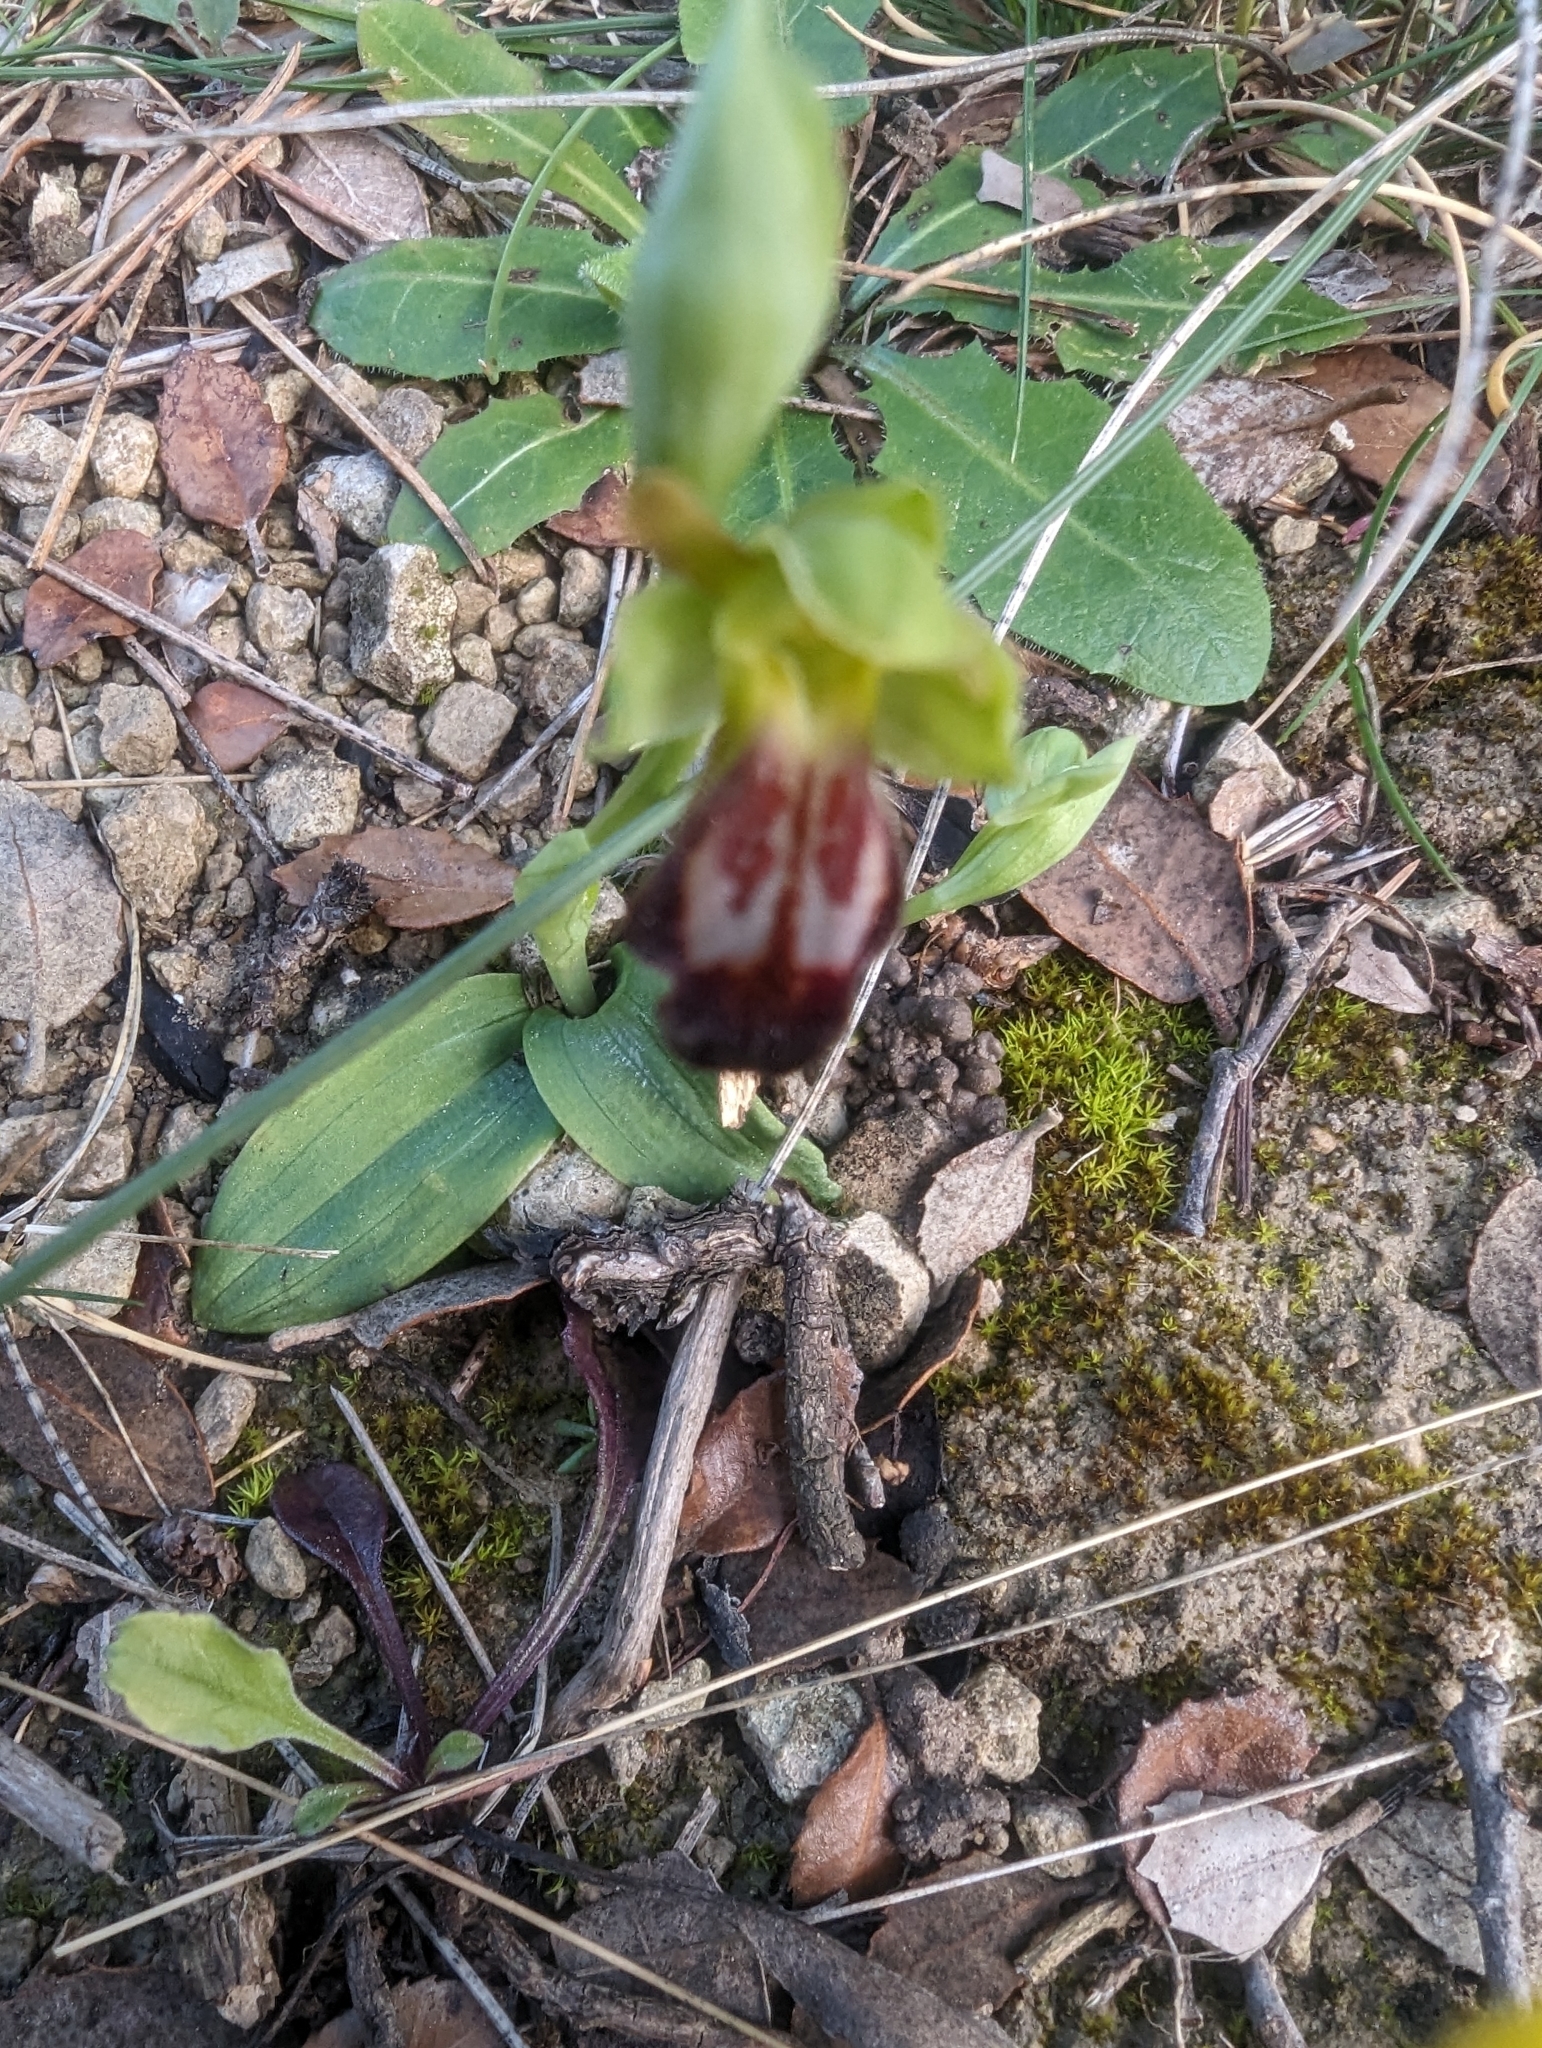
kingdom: Plantae
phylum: Tracheophyta
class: Liliopsida
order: Asparagales
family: Orchidaceae
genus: Ophrys
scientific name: Ophrys fusca
